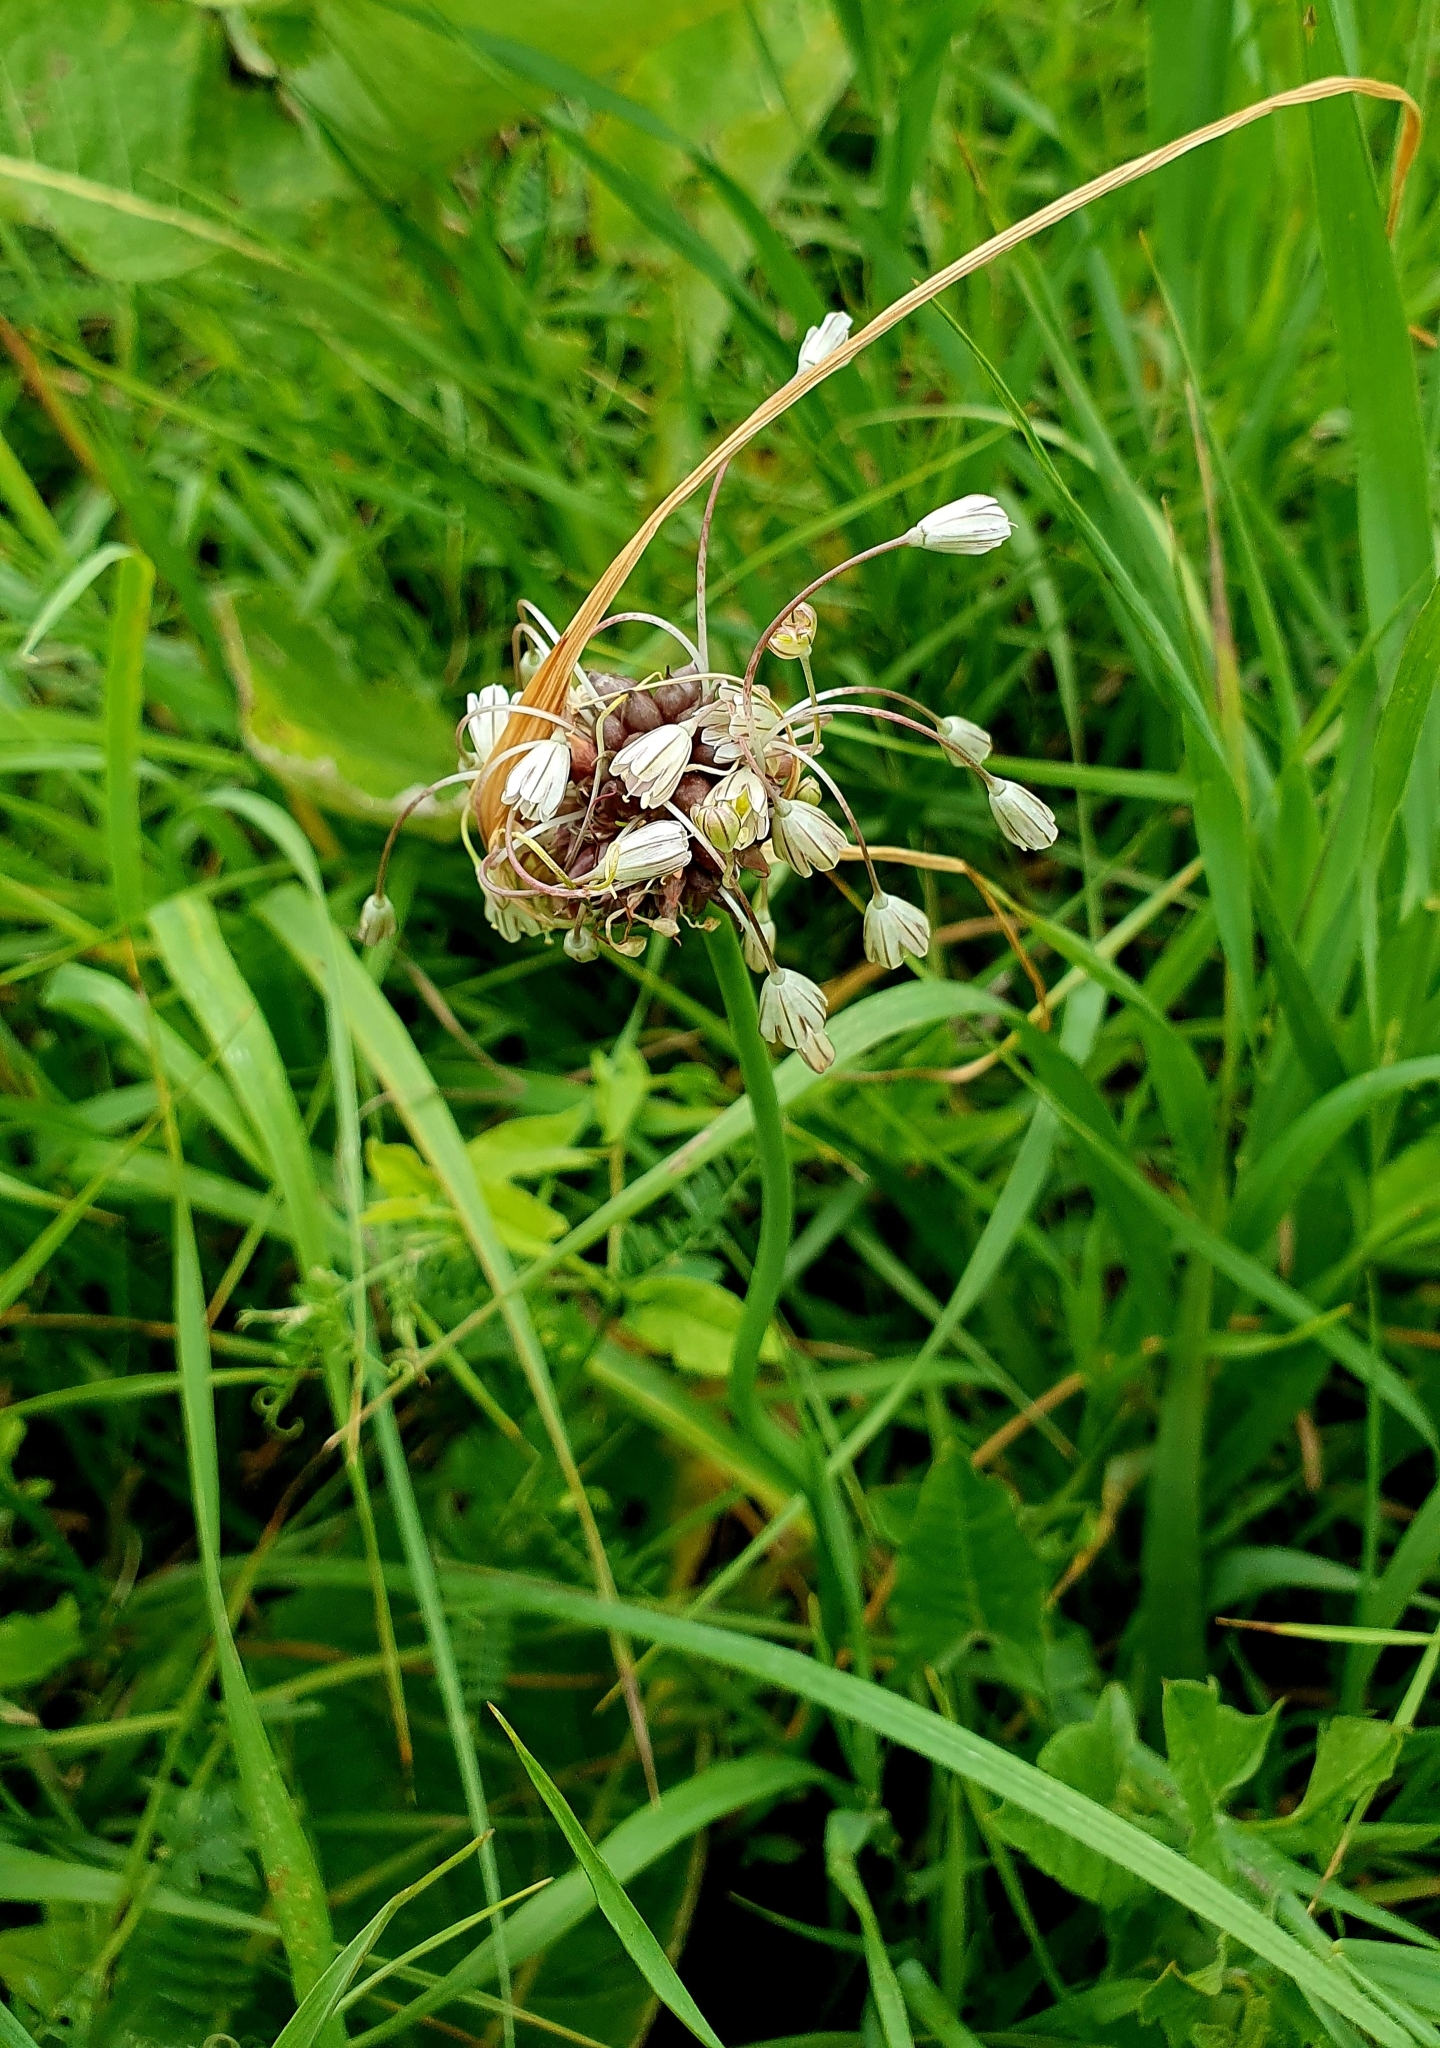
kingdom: Plantae
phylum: Tracheophyta
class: Liliopsida
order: Asparagales
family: Amaryllidaceae
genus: Allium
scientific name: Allium oleraceum
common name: Field garlic
